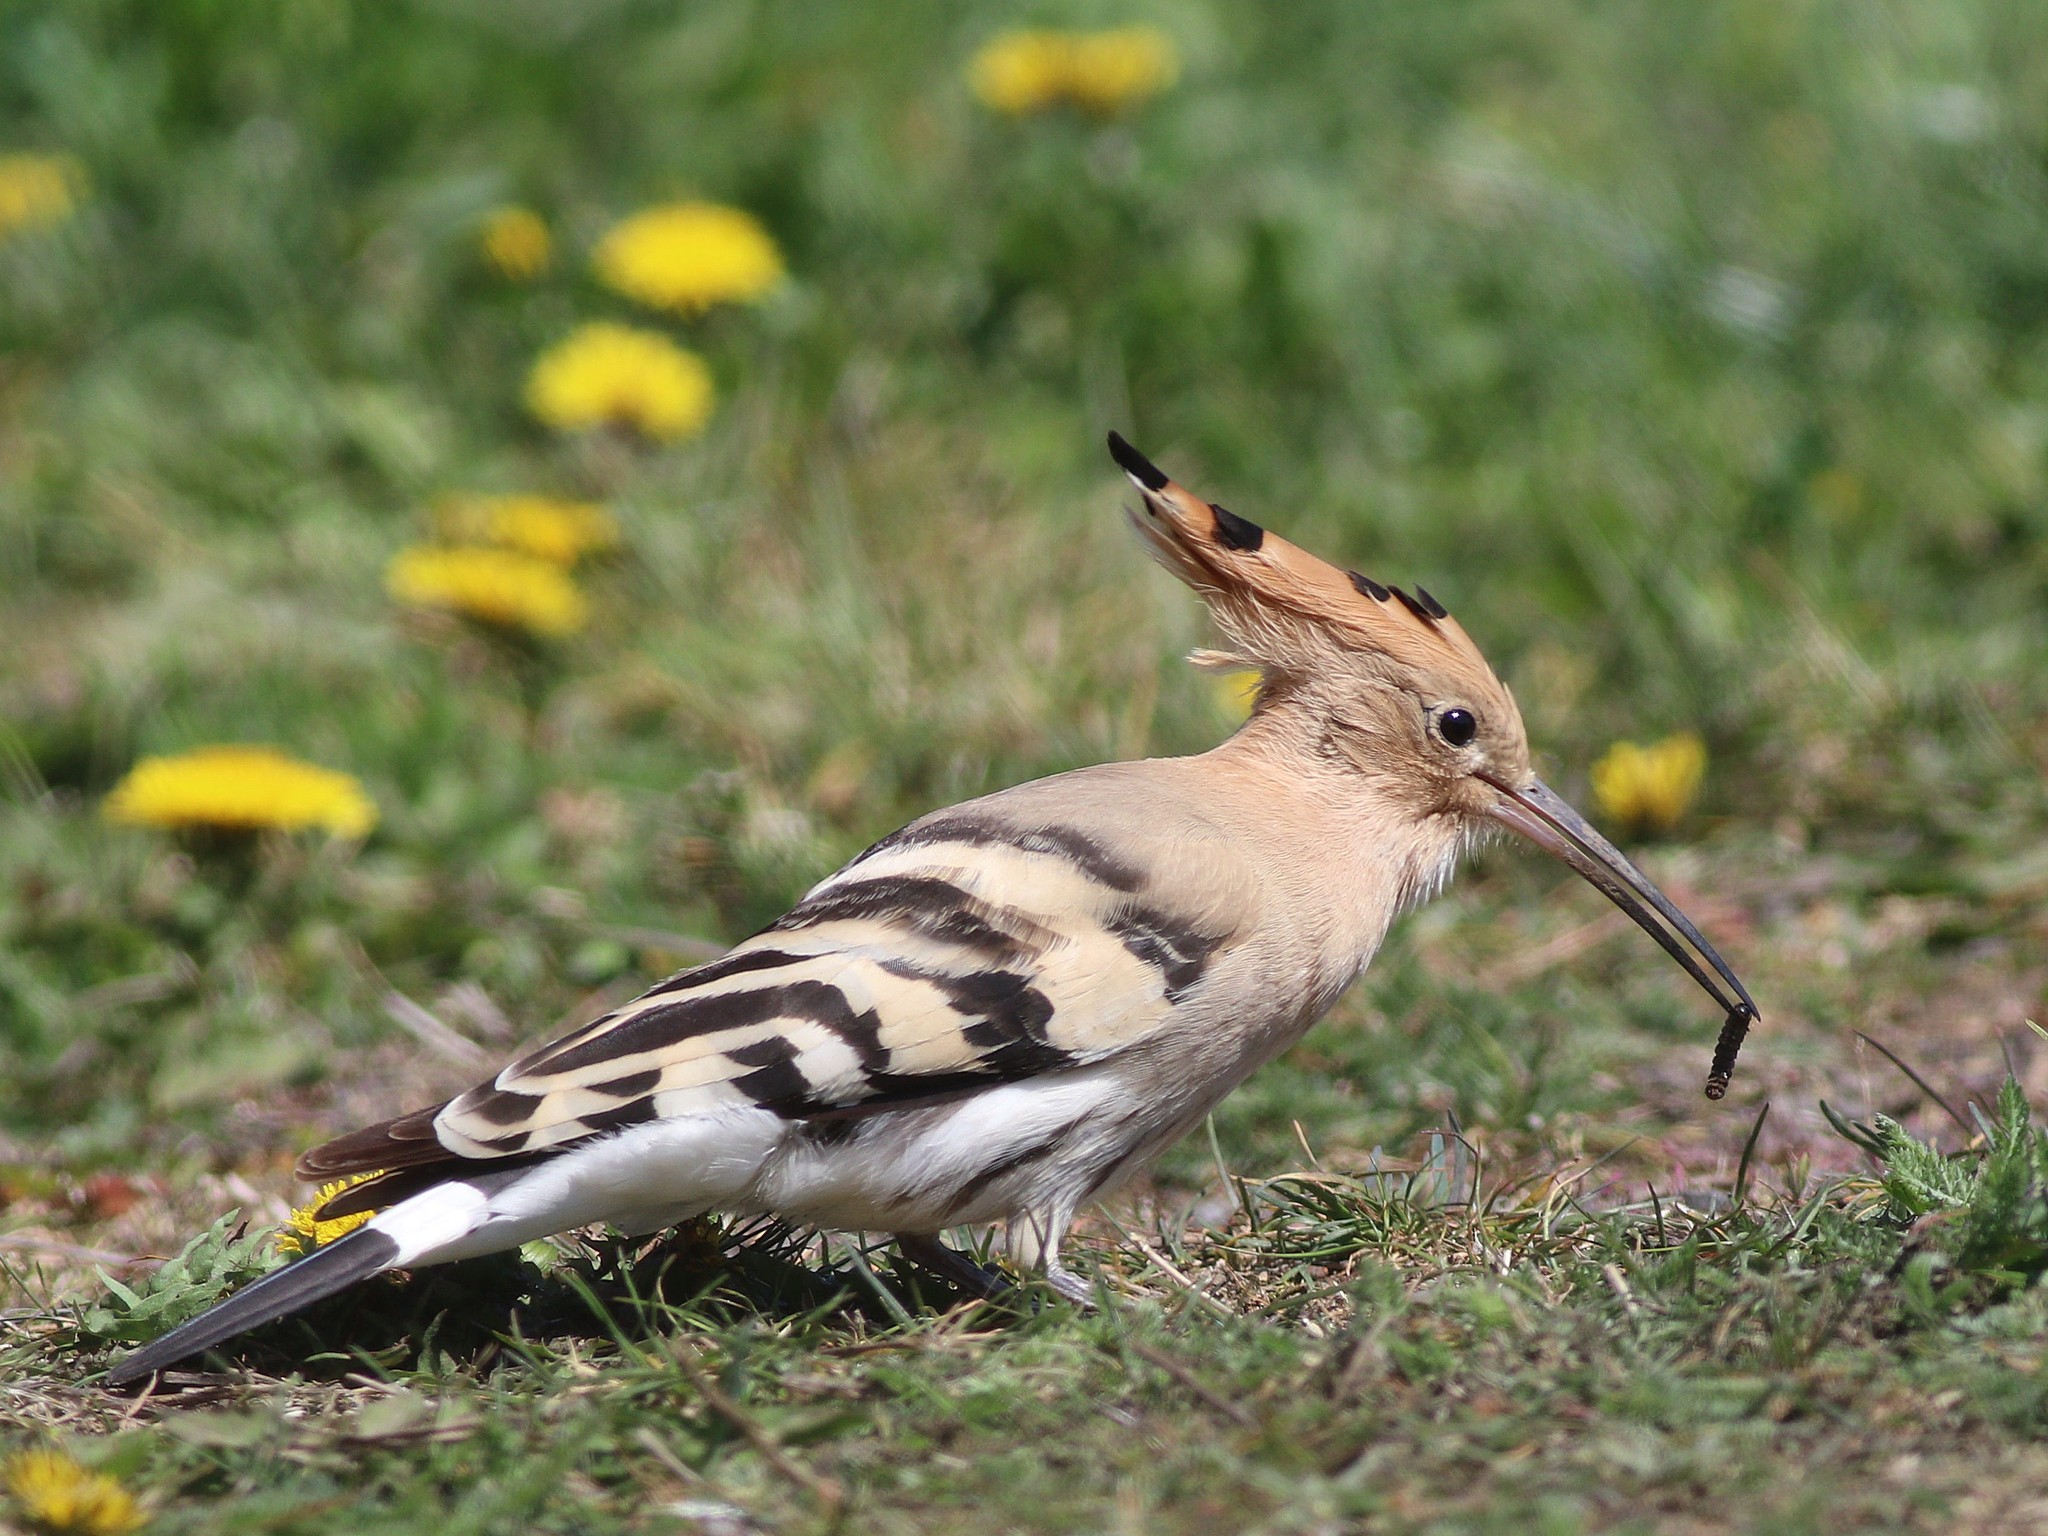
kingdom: Animalia
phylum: Chordata
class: Aves
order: Bucerotiformes
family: Upupidae
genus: Upupa
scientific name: Upupa epops
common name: Eurasian hoopoe
